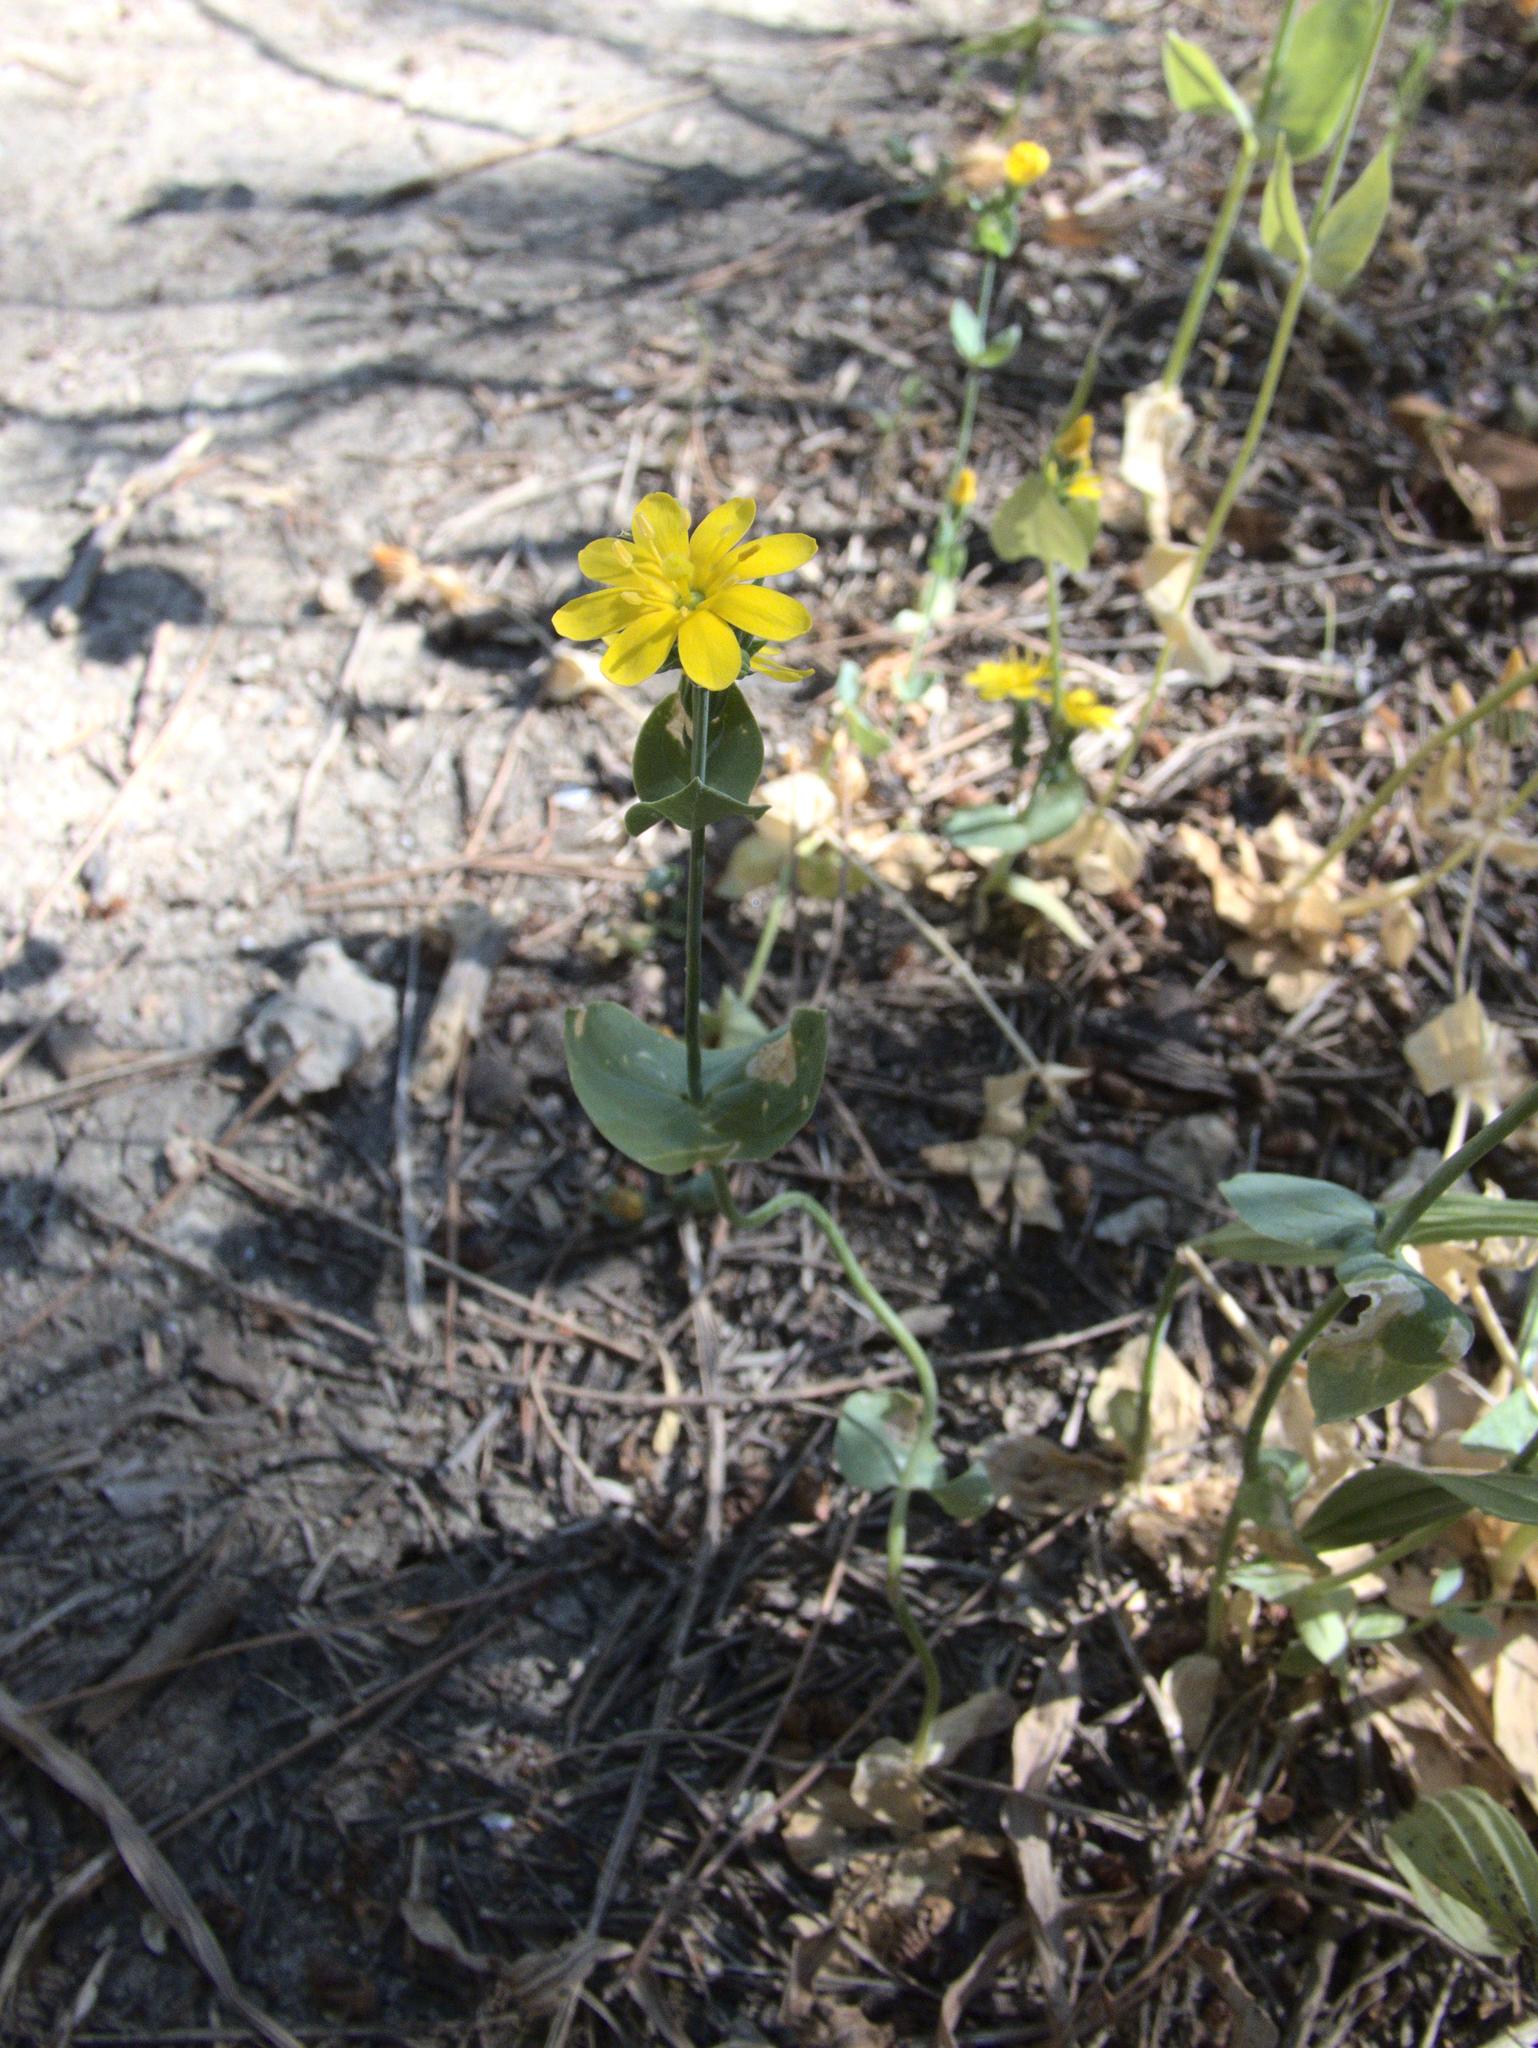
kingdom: Plantae
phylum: Tracheophyta
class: Magnoliopsida
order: Gentianales
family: Gentianaceae
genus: Blackstonia
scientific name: Blackstonia perfoliata
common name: Yellow-wort
